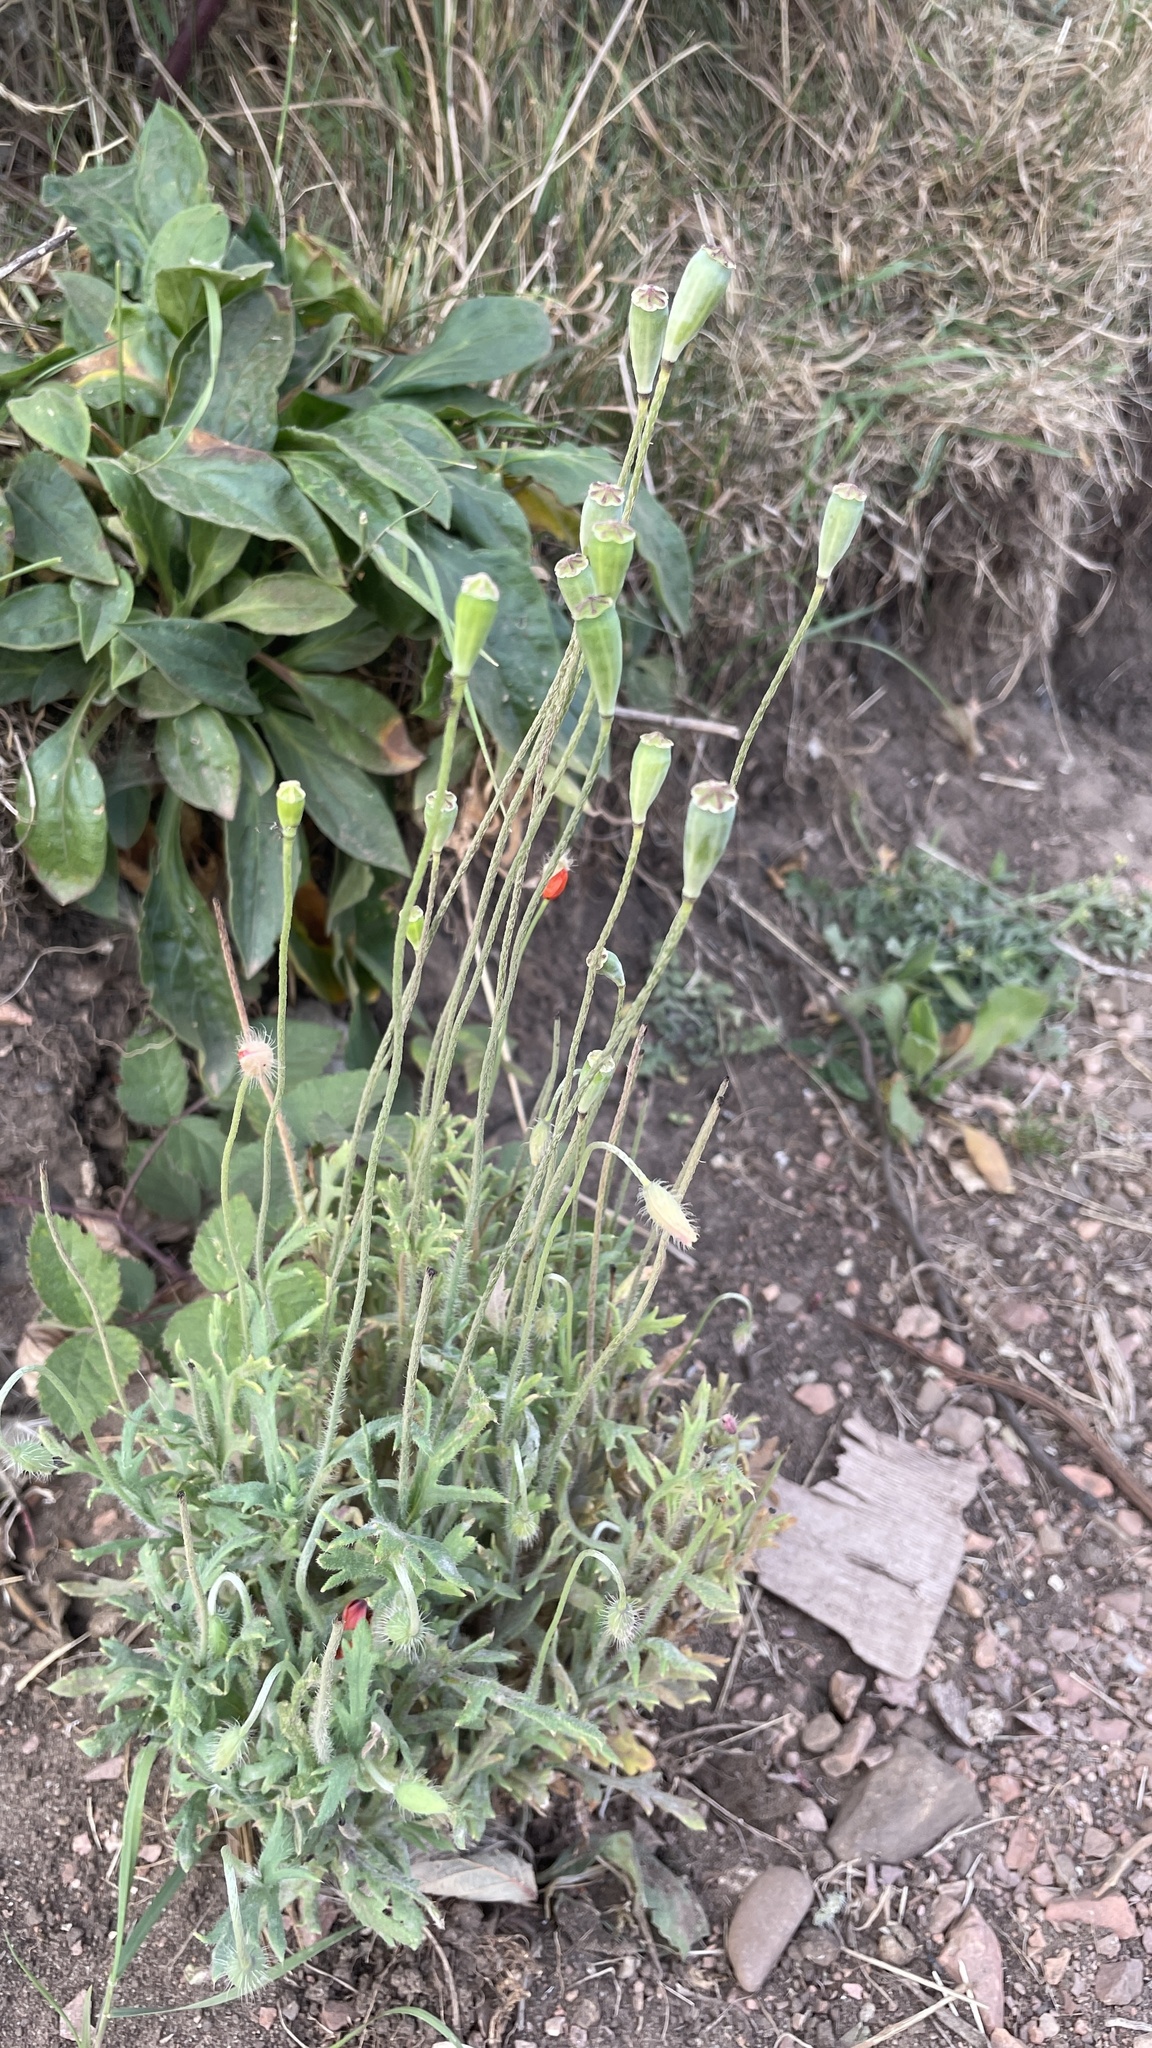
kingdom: Plantae
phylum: Tracheophyta
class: Magnoliopsida
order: Ranunculales
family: Papaveraceae
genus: Papaver
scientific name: Papaver dubium
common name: Long-headed poppy
